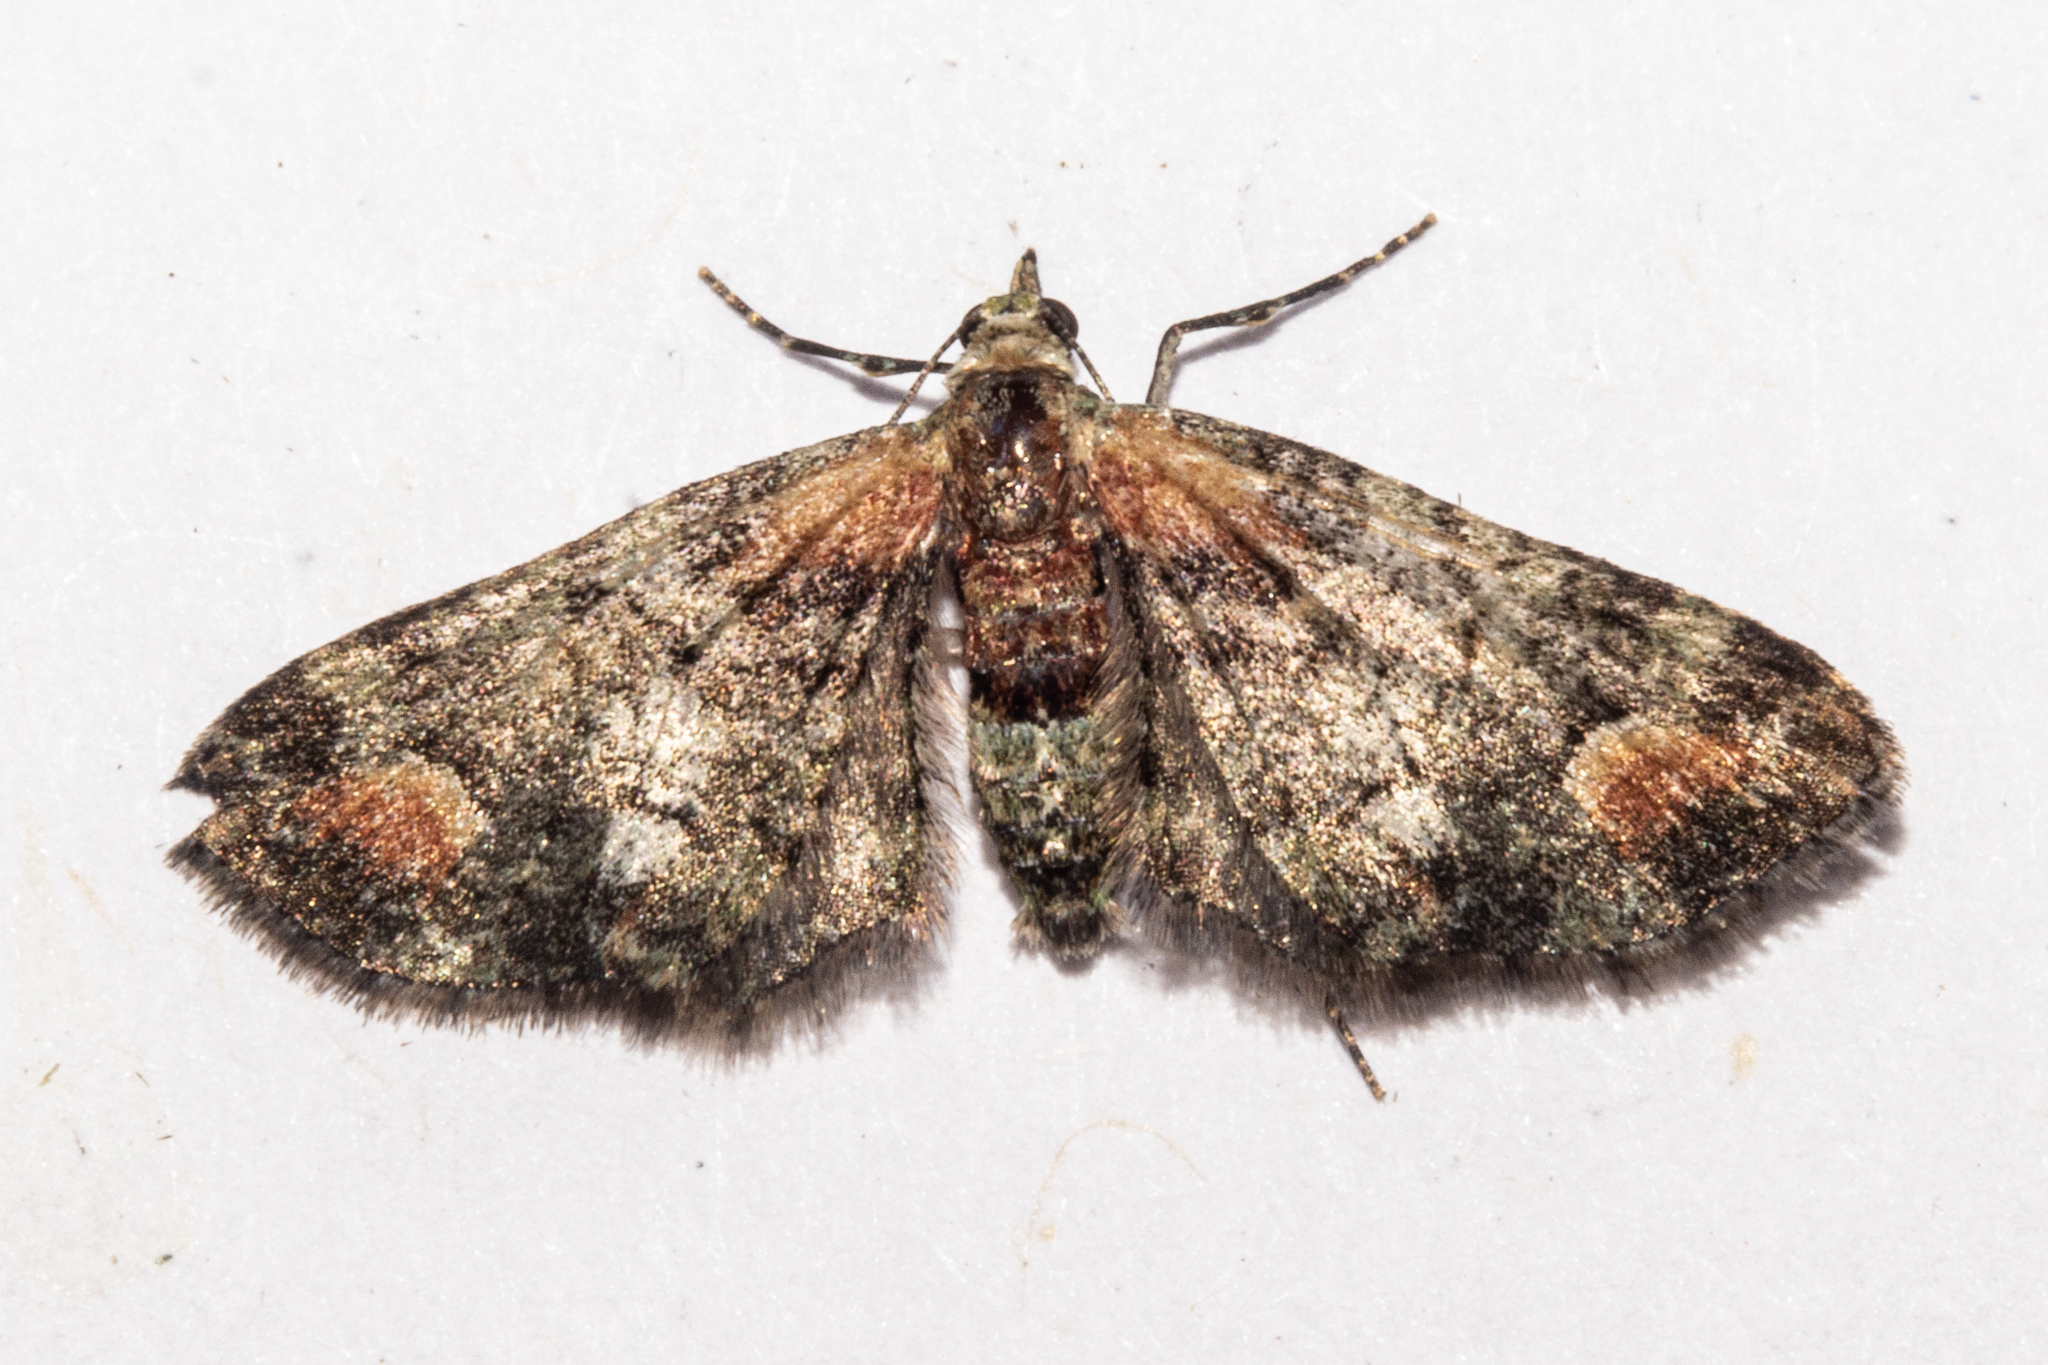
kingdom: Animalia
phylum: Arthropoda
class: Insecta
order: Lepidoptera
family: Geometridae
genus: Pasiphilodes
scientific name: Pasiphilodes testulata
